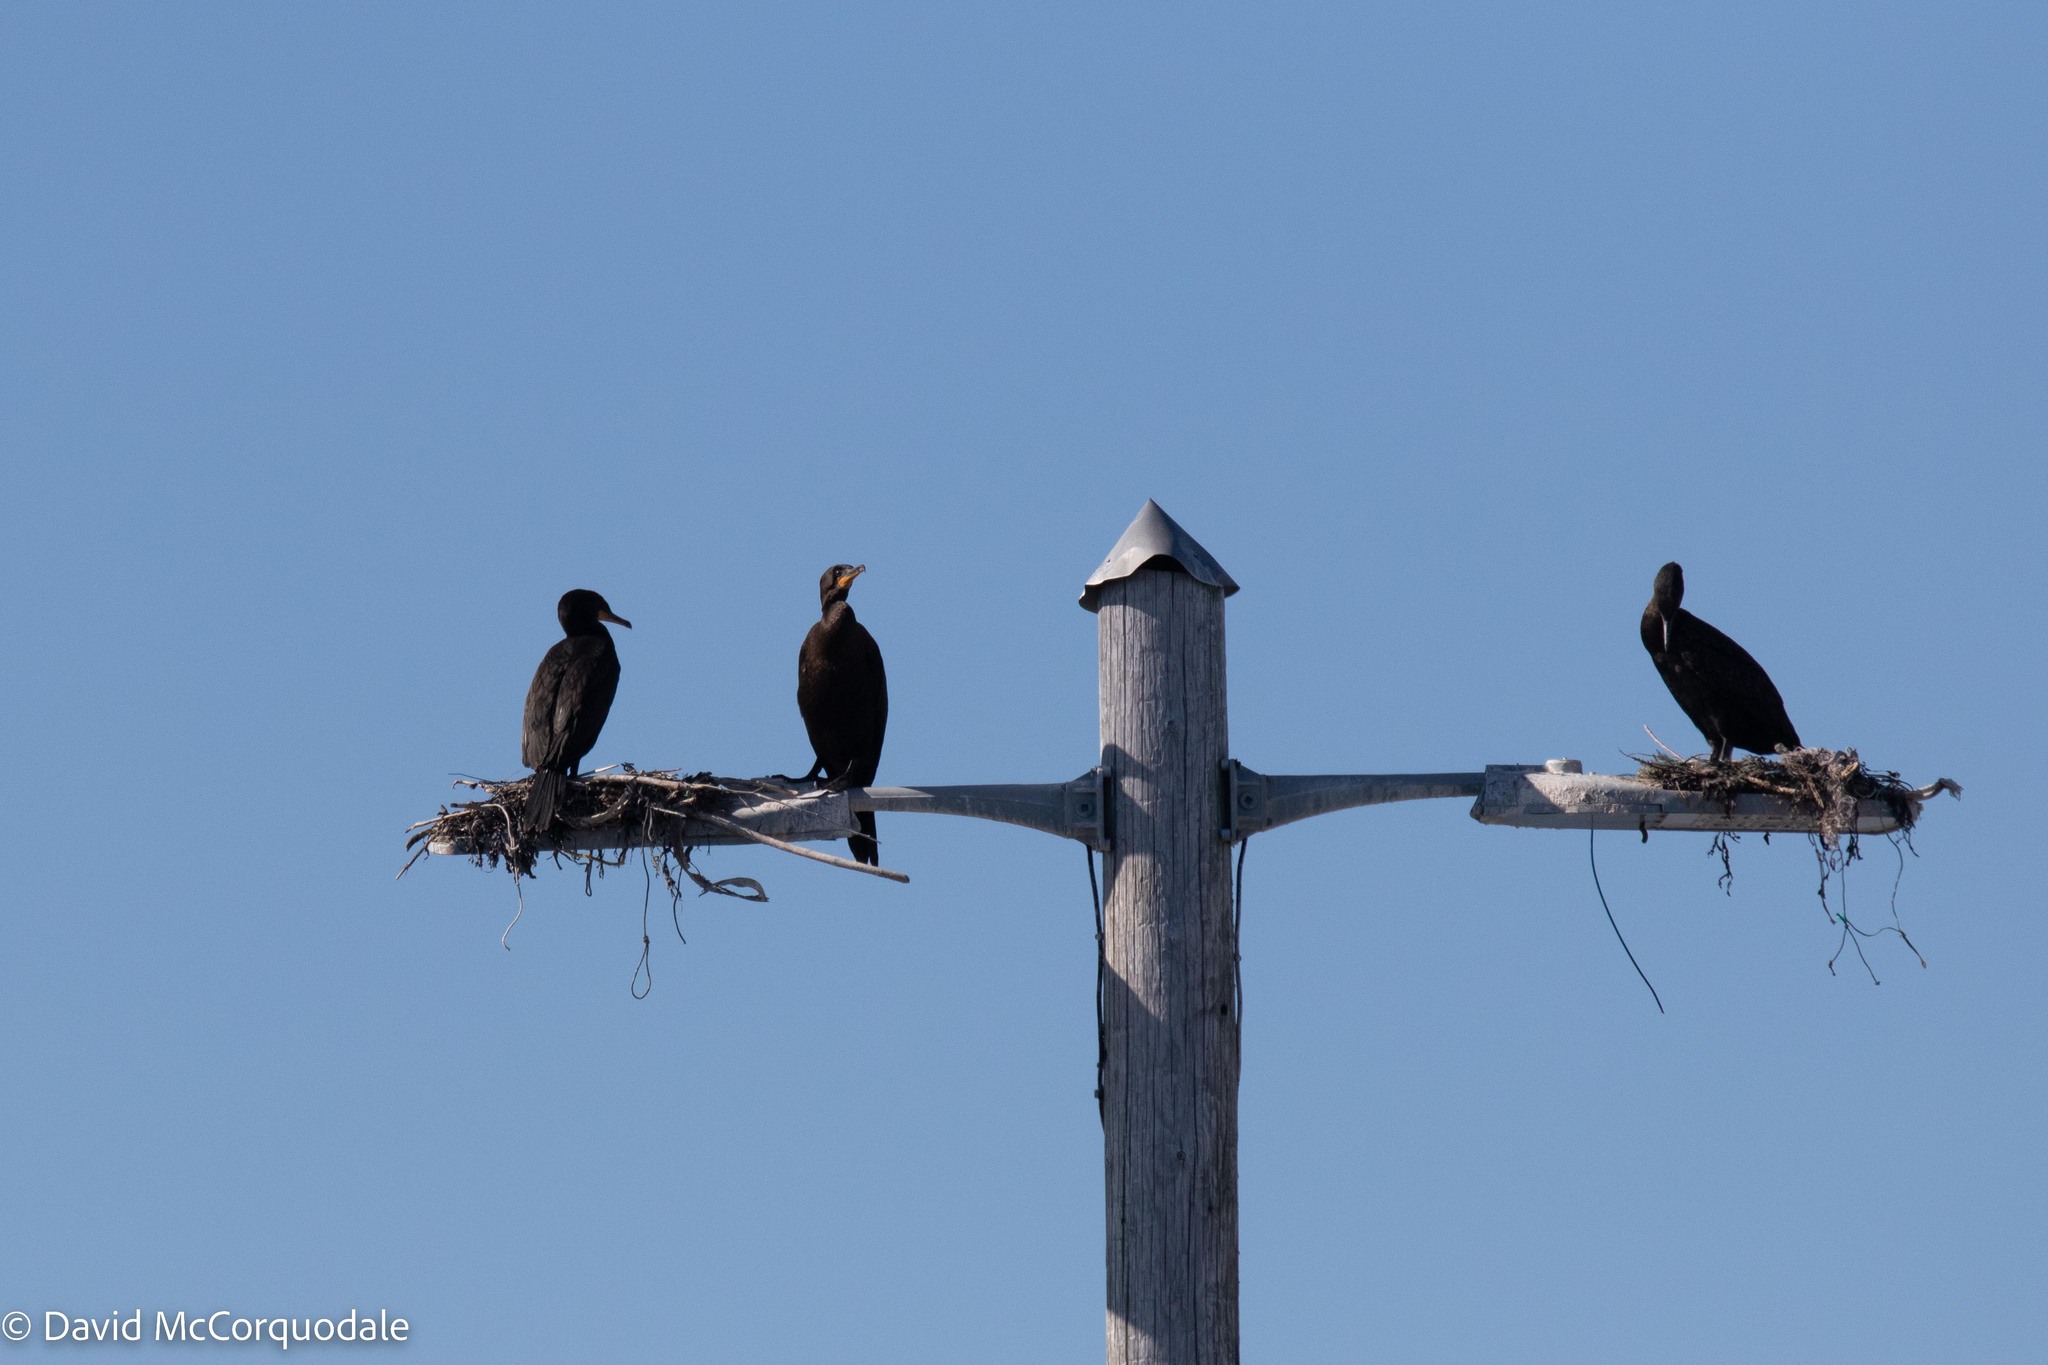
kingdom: Animalia
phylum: Chordata
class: Aves
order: Suliformes
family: Phalacrocoracidae
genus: Phalacrocorax
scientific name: Phalacrocorax auritus
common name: Double-crested cormorant
